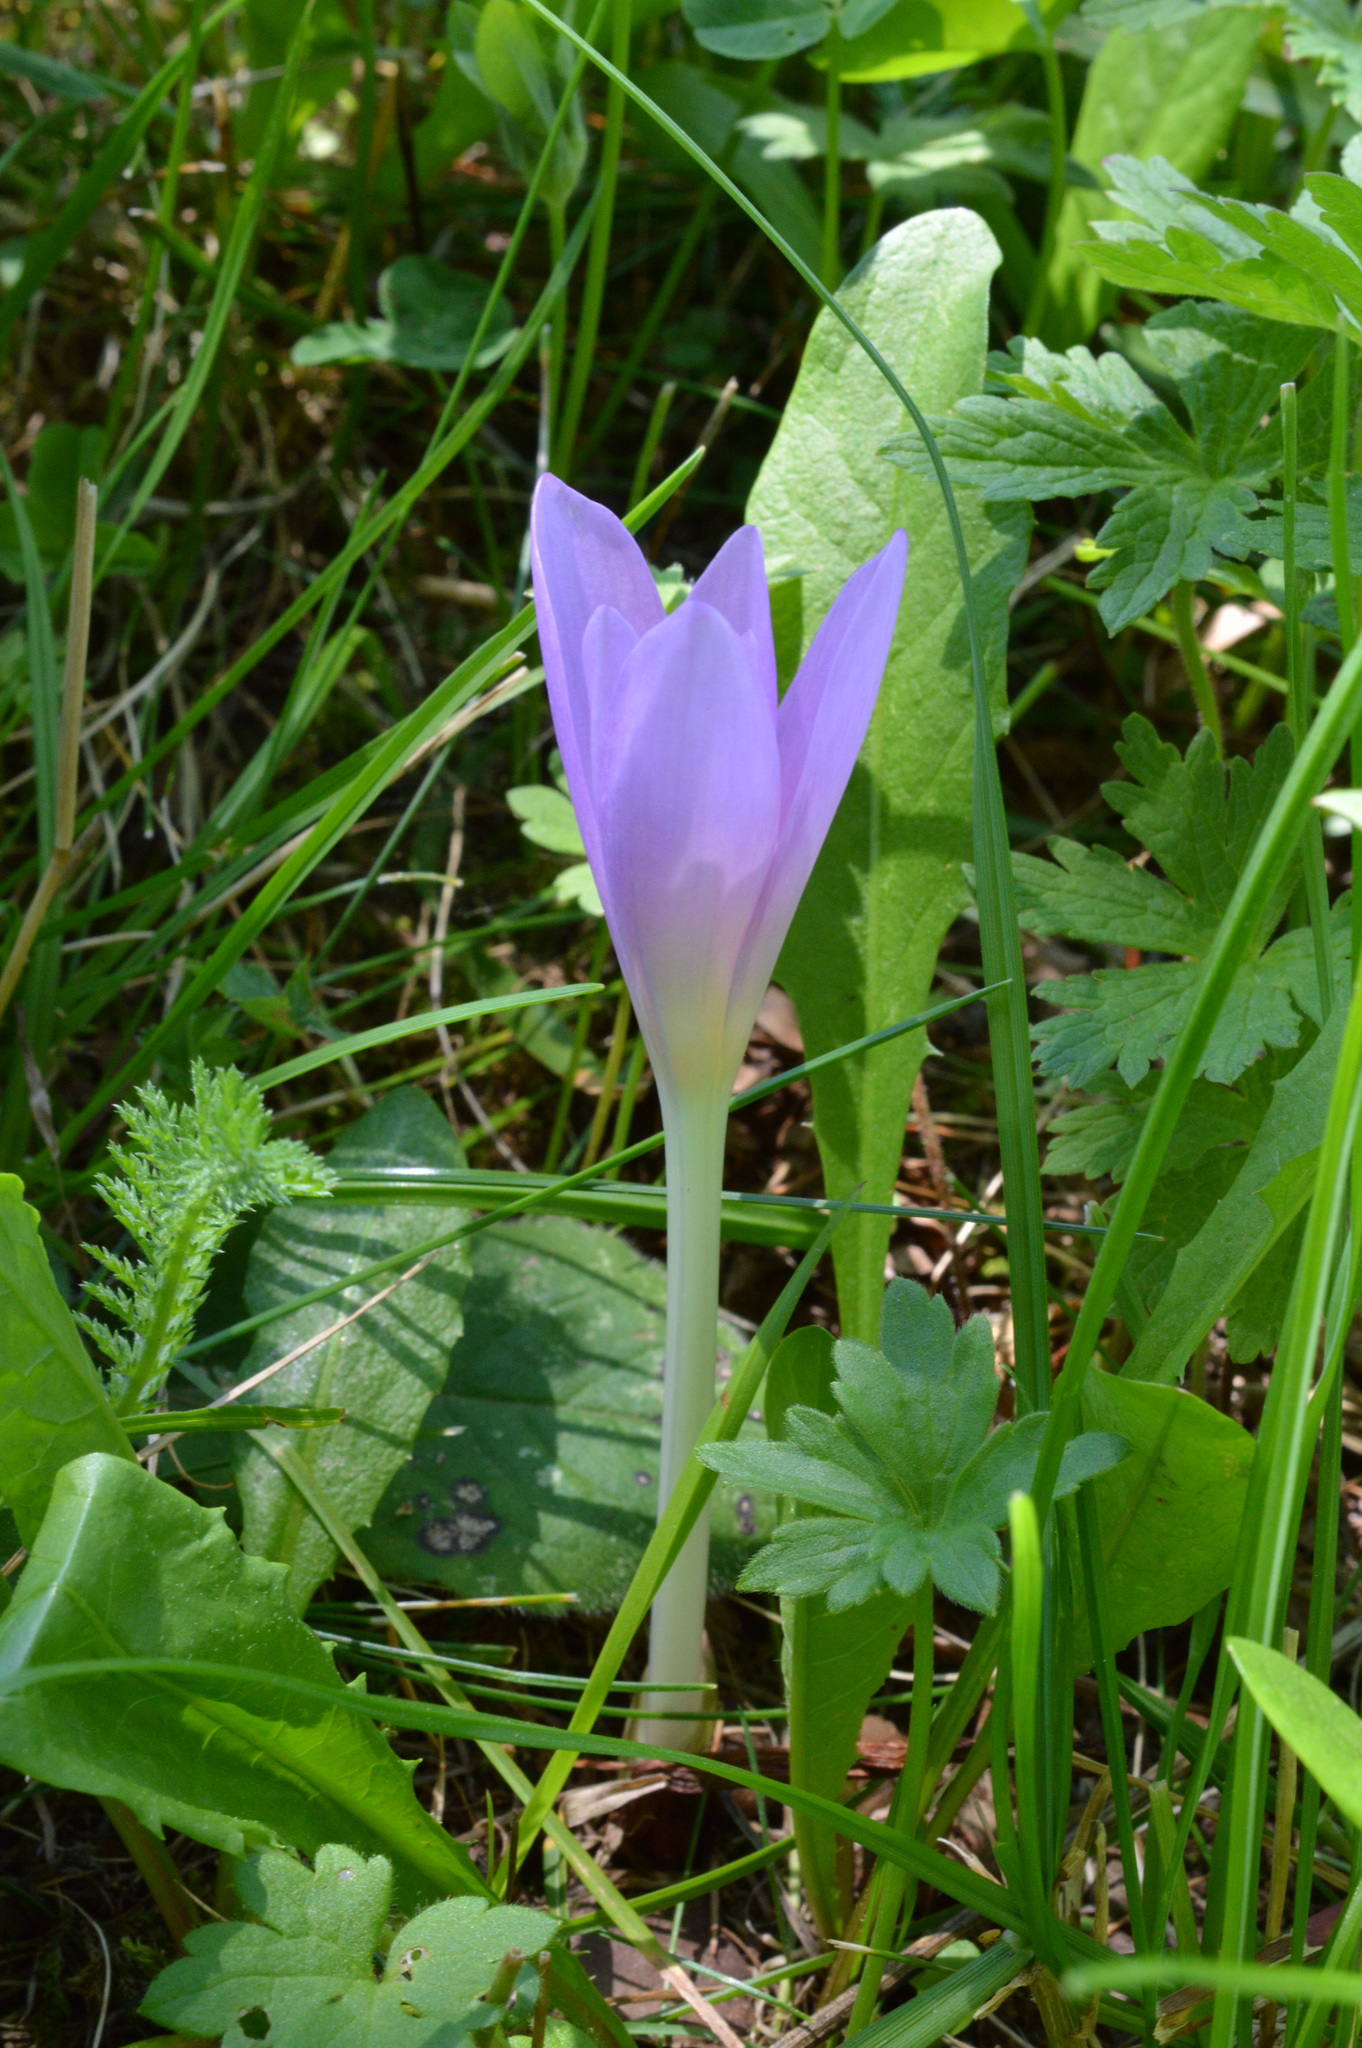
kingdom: Plantae
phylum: Tracheophyta
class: Liliopsida
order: Liliales
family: Colchicaceae
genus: Colchicum
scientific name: Colchicum autumnale
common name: Autumn crocus
